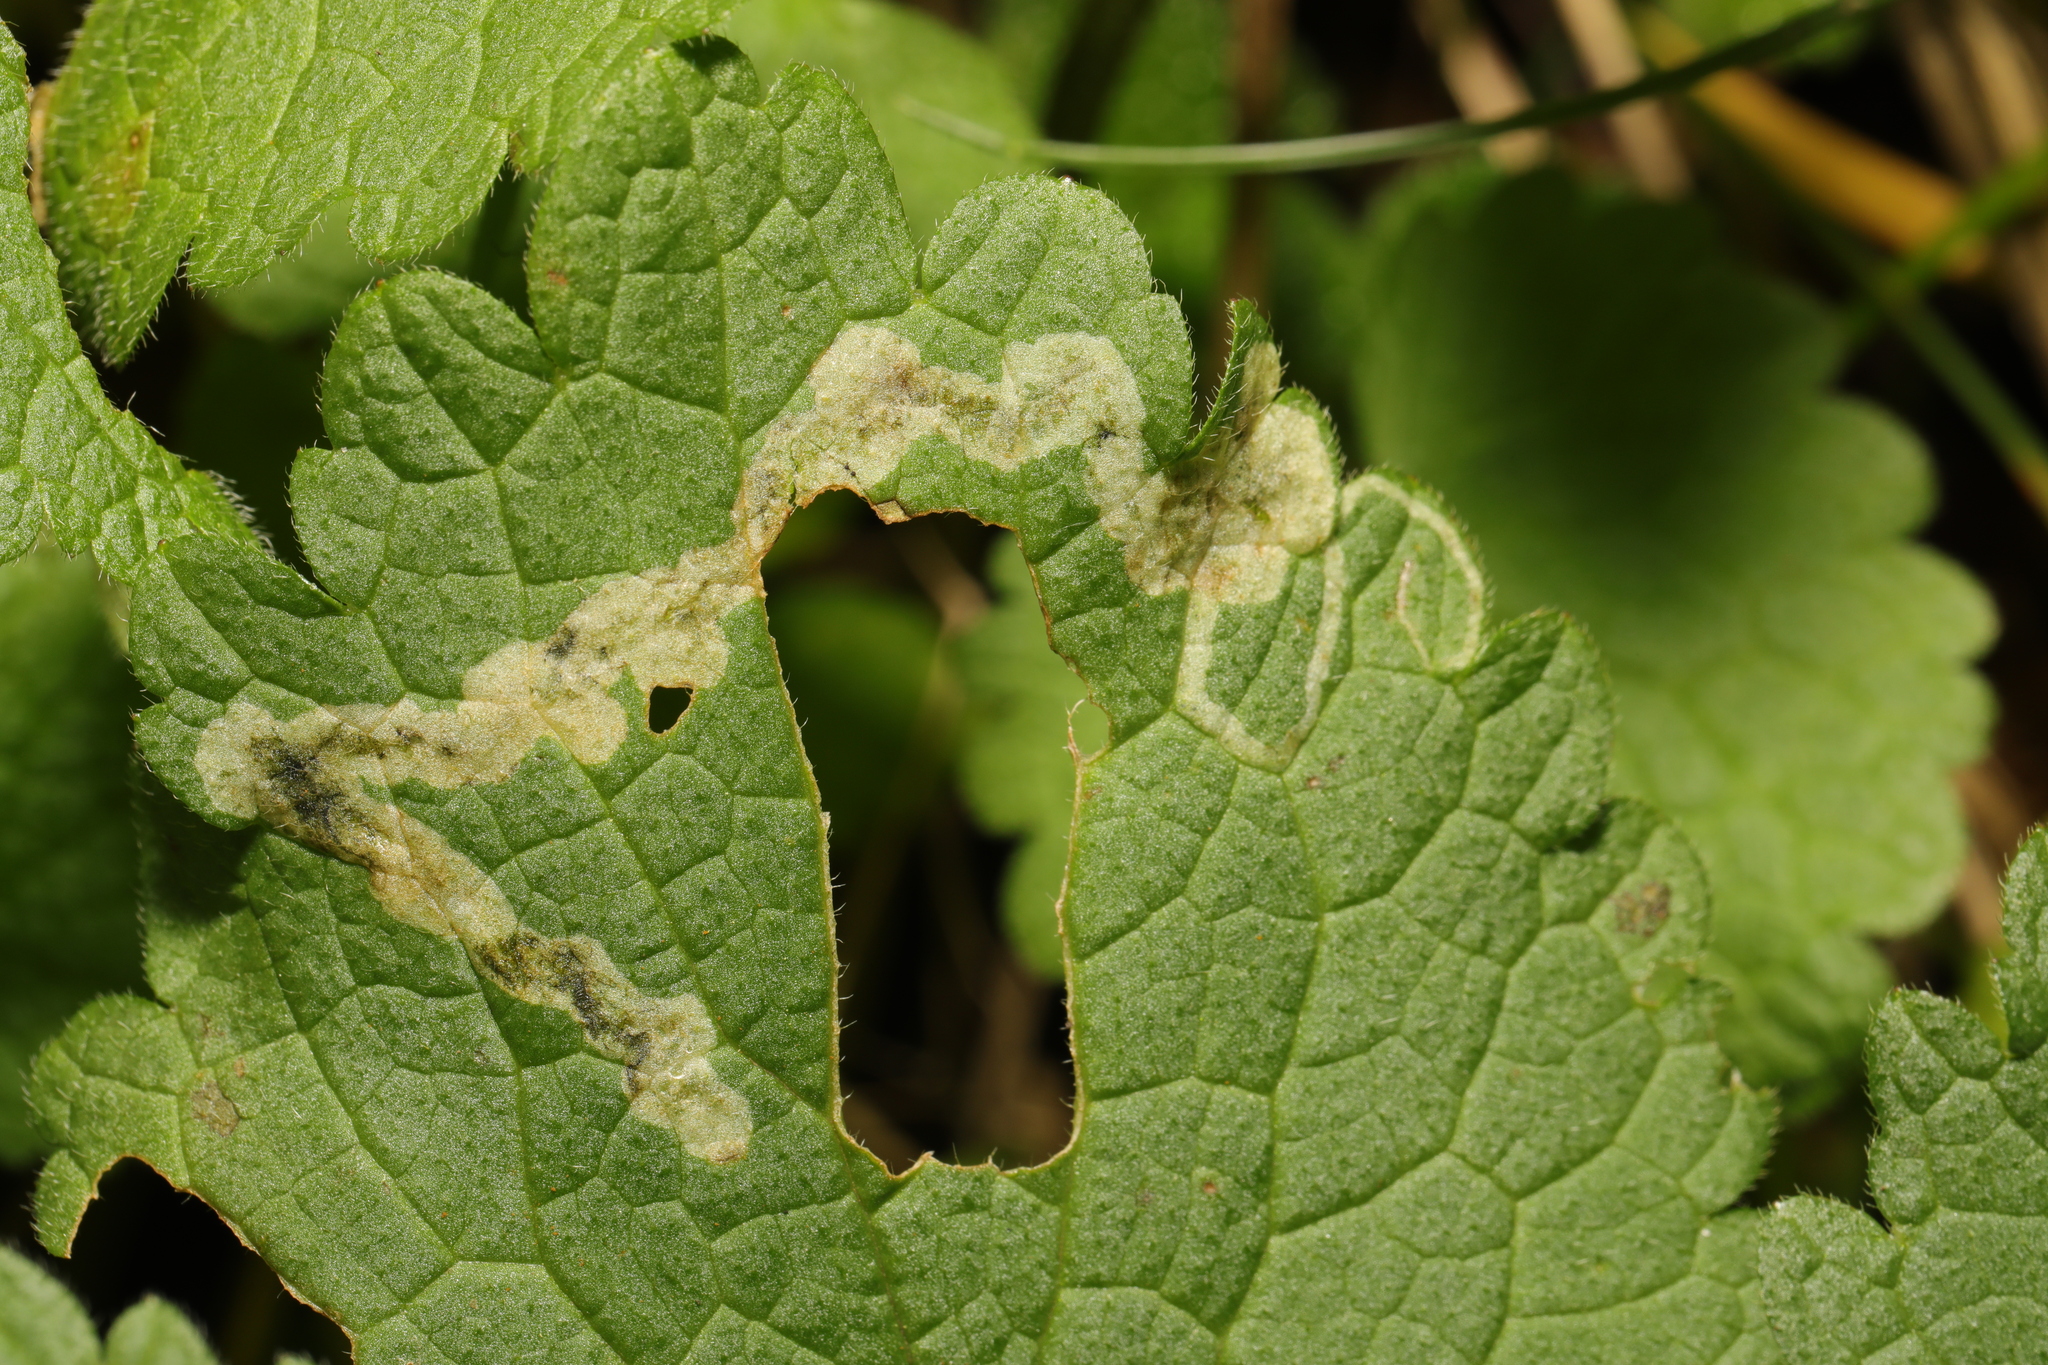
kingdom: Animalia
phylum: Arthropoda
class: Insecta
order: Diptera
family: Agromyzidae
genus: Amauromyza
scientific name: Amauromyza labiatarum
